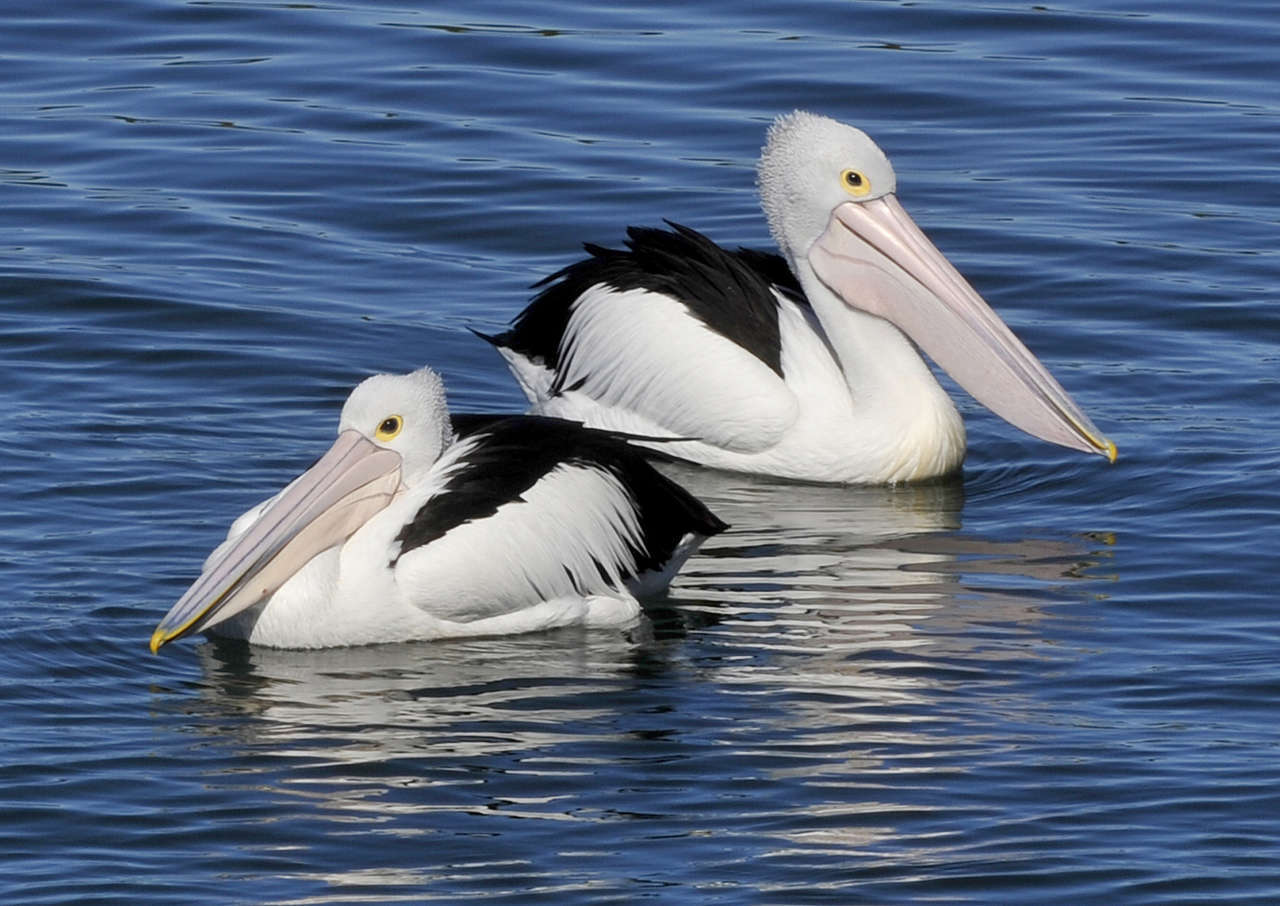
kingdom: Animalia
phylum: Chordata
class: Aves
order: Pelecaniformes
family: Pelecanidae
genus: Pelecanus
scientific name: Pelecanus conspicillatus
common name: Australian pelican
